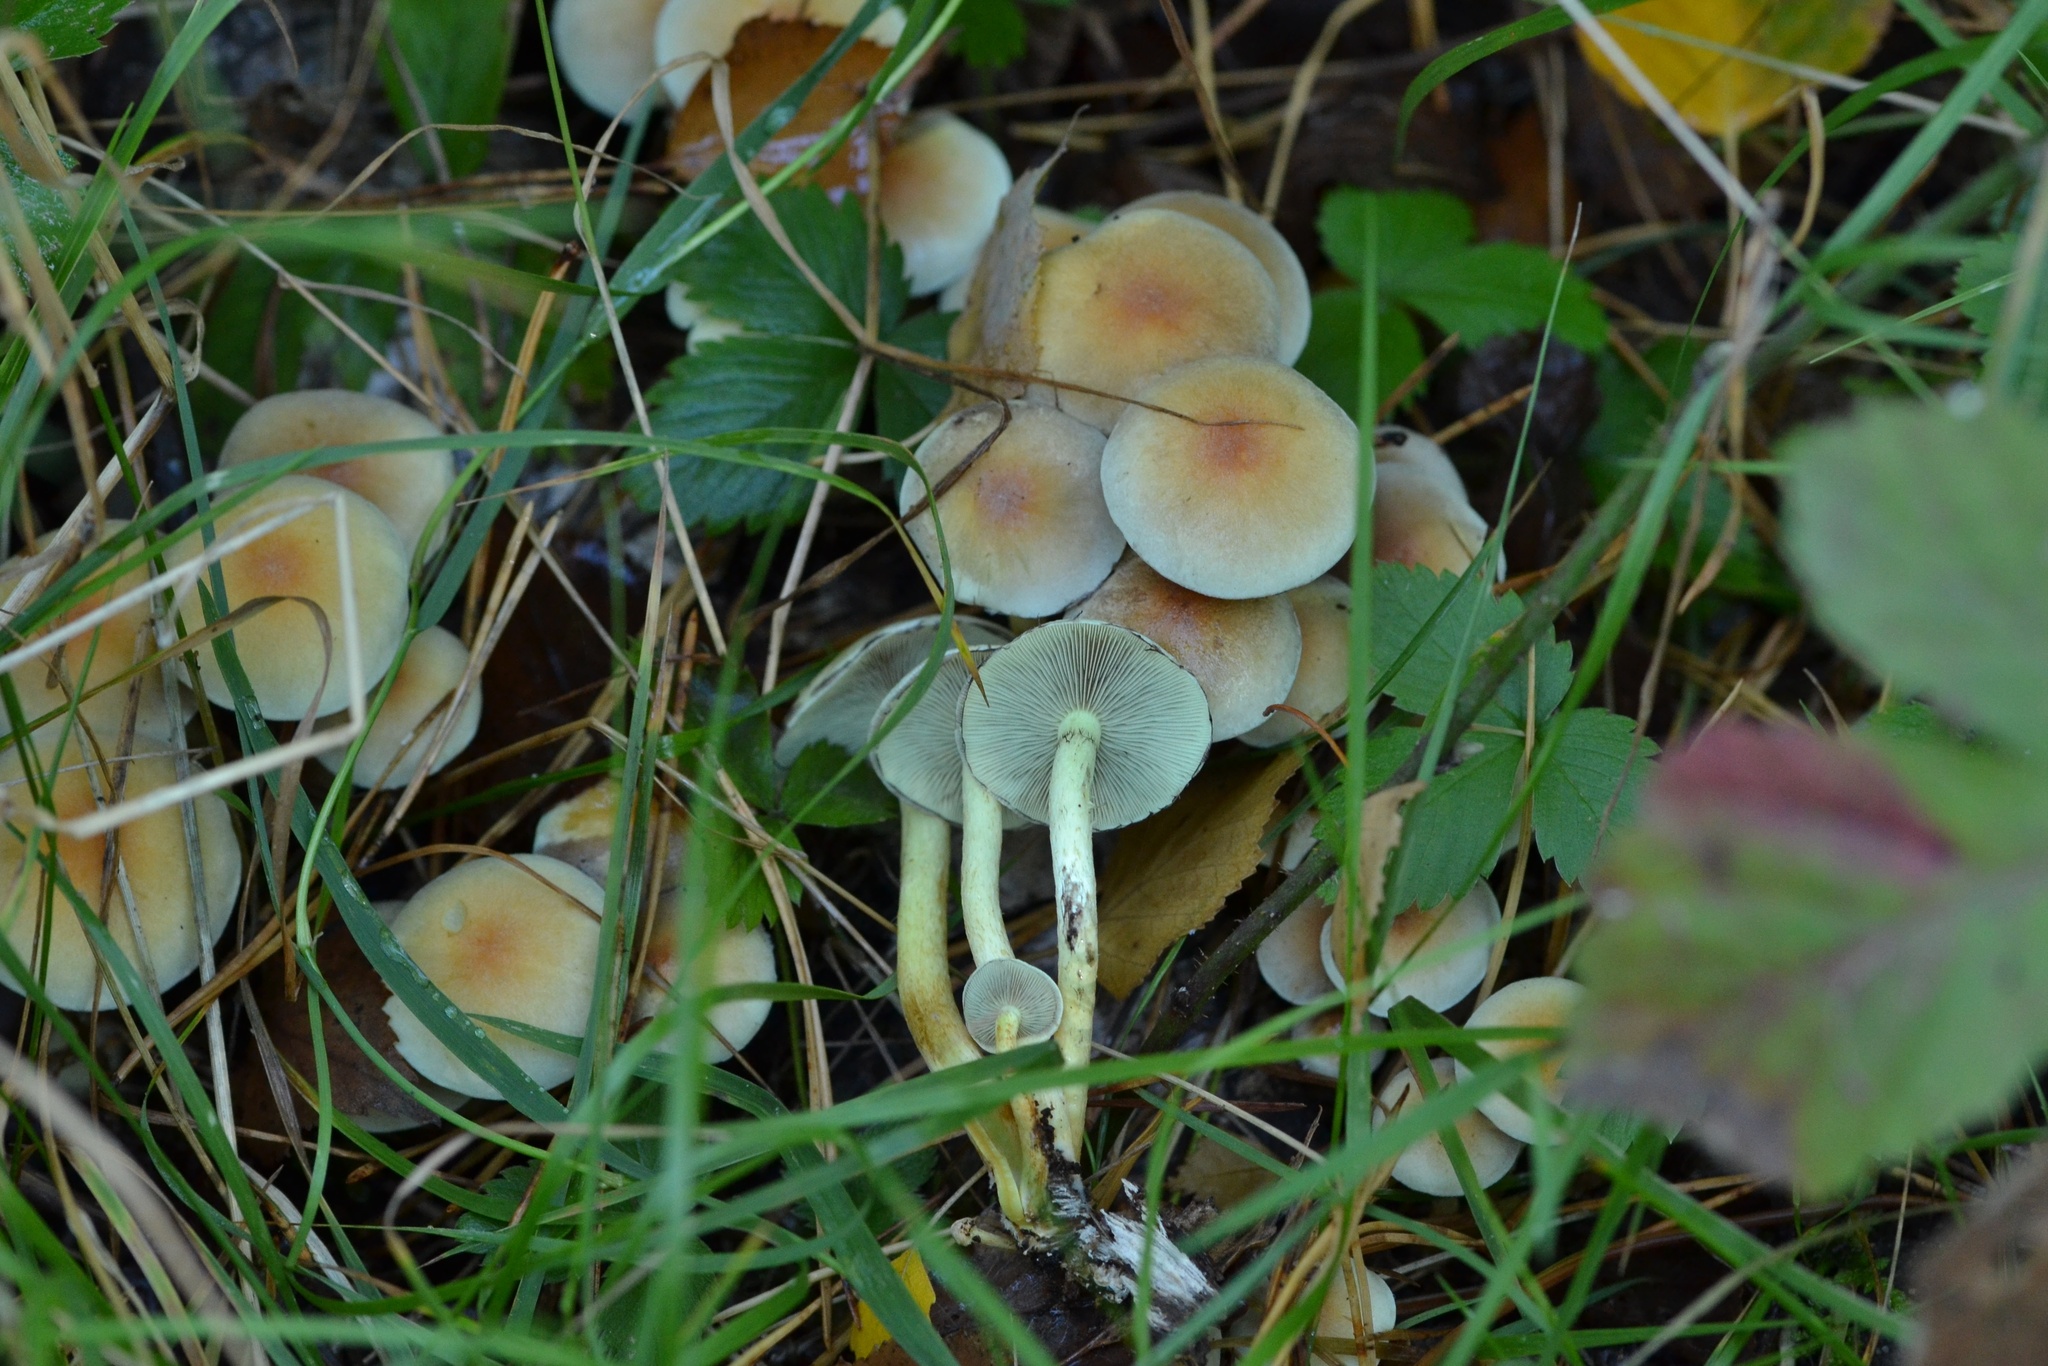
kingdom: Fungi
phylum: Basidiomycota
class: Agaricomycetes
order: Agaricales
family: Strophariaceae
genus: Hypholoma
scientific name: Hypholoma fasciculare
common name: Sulphur tuft
